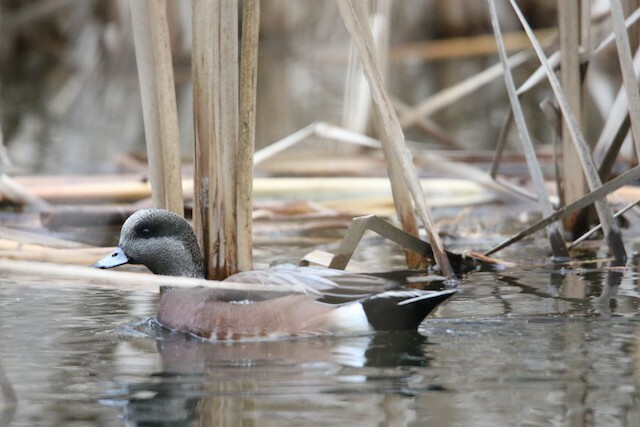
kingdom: Animalia
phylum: Chordata
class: Aves
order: Anseriformes
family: Anatidae
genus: Mareca
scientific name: Mareca americana
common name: American wigeon
